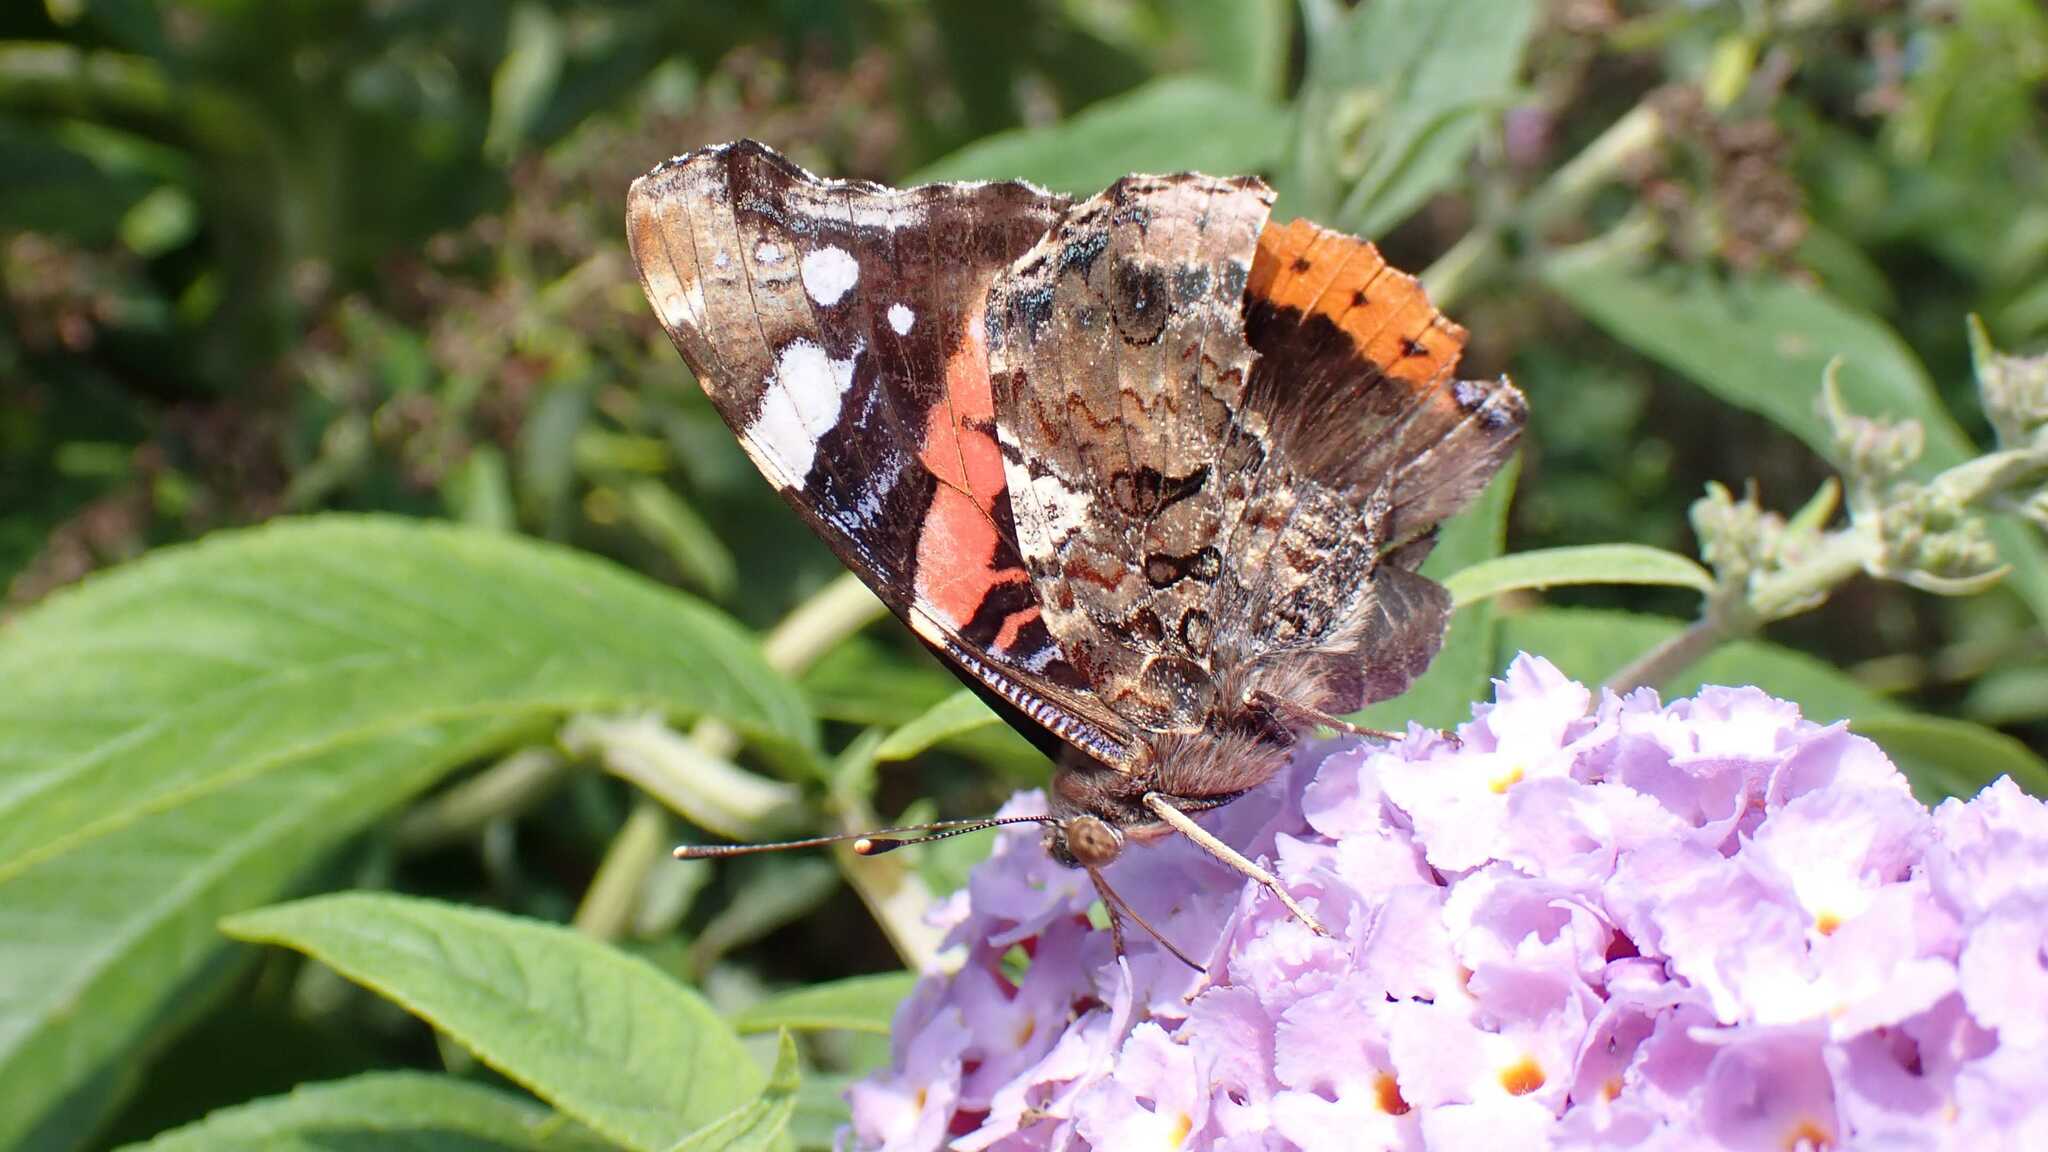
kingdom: Animalia
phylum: Arthropoda
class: Insecta
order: Lepidoptera
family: Nymphalidae
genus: Vanessa
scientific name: Vanessa atalanta
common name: Red admiral
